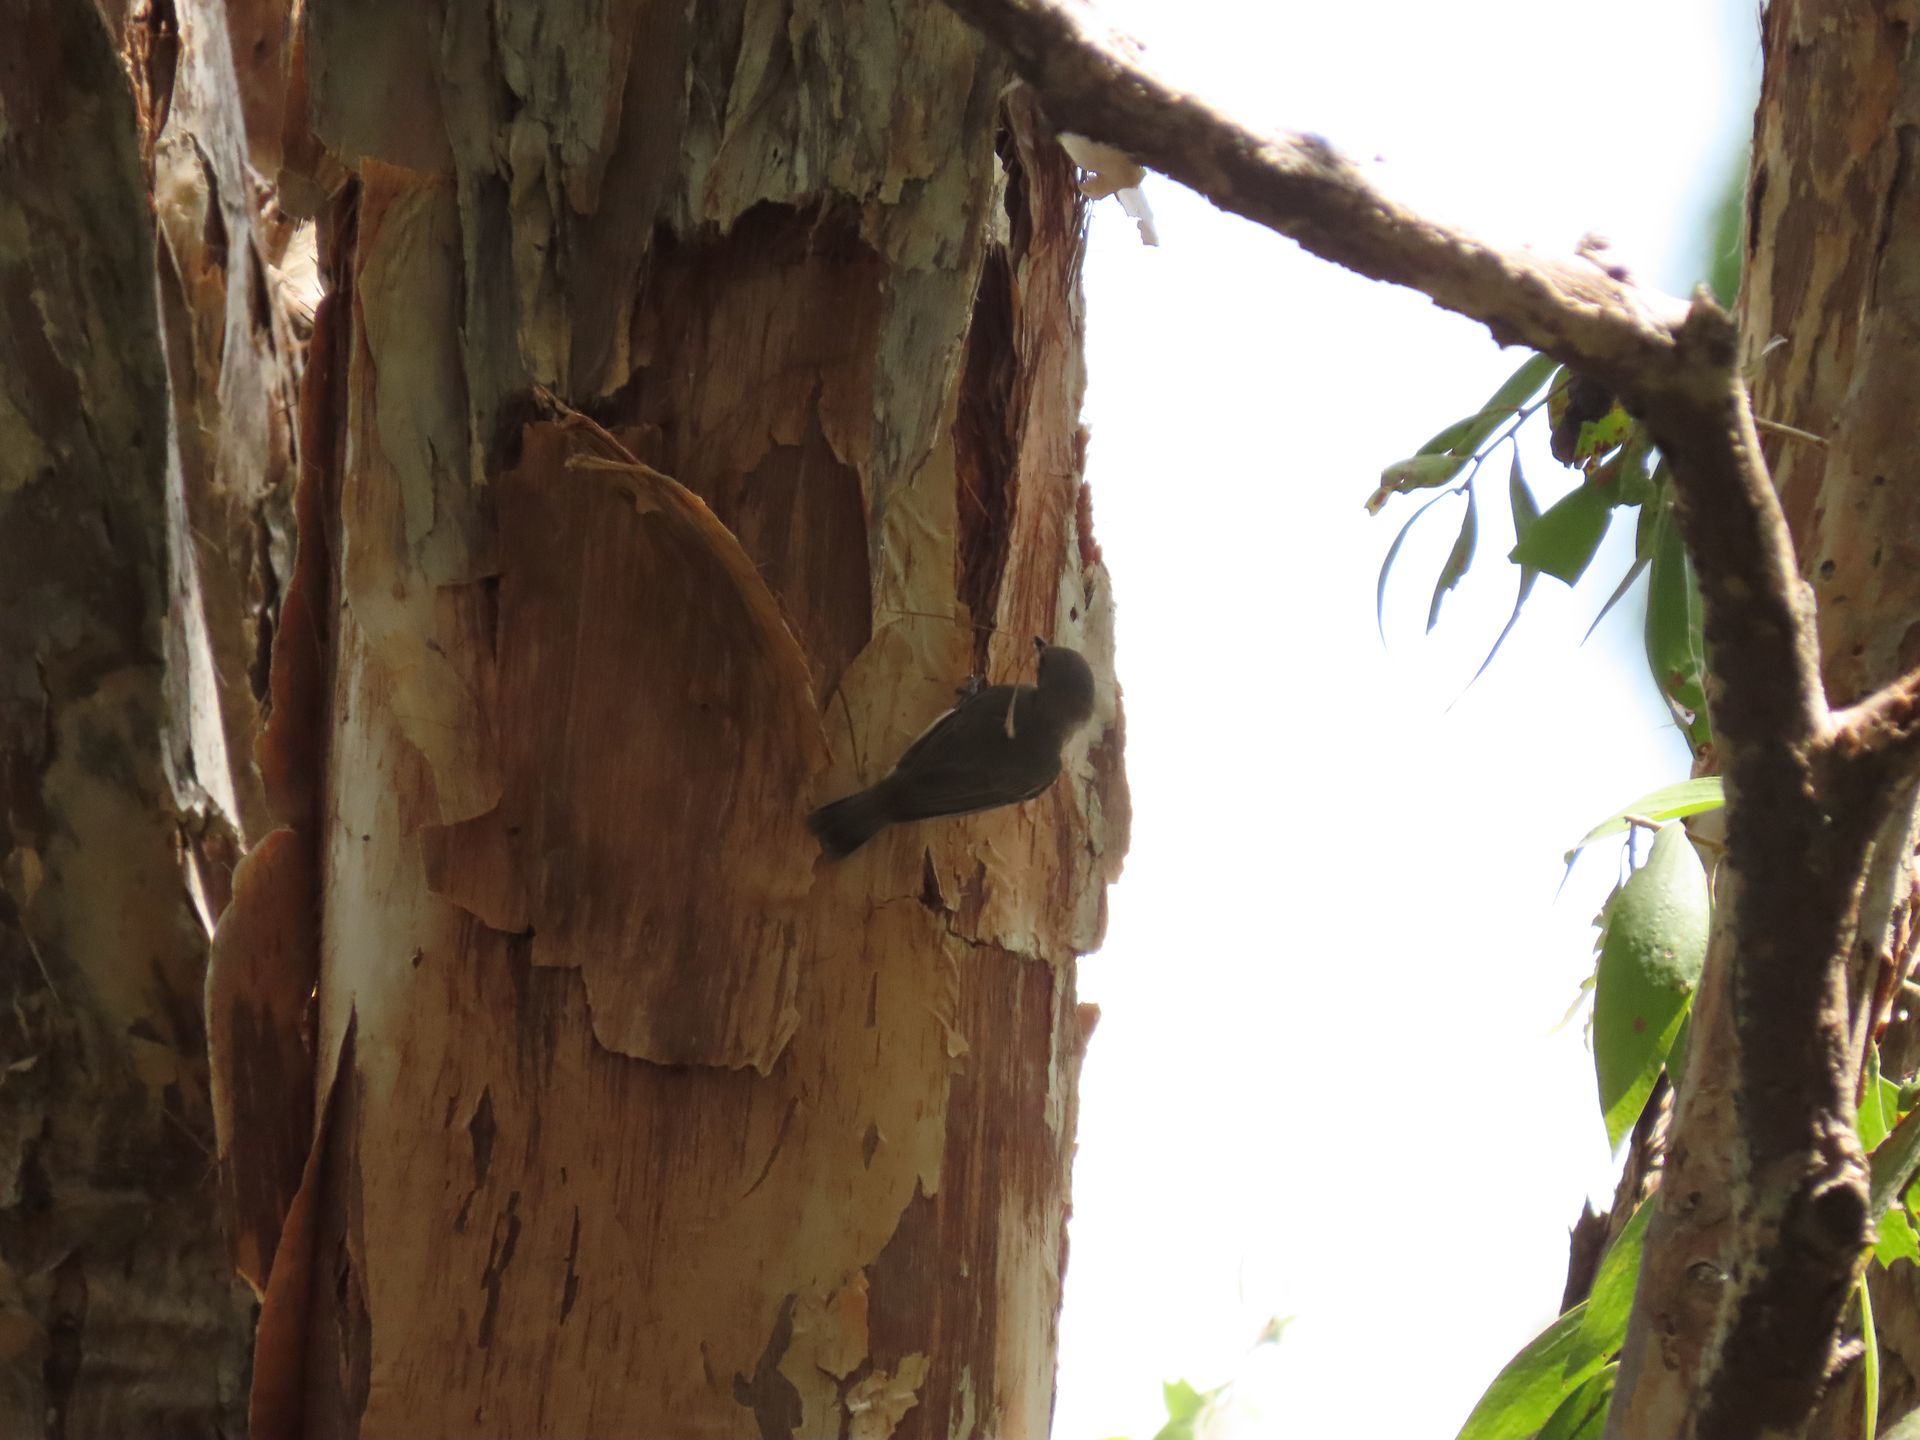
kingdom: Animalia
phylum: Chordata
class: Aves
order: Passeriformes
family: Acanthizidae
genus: Gerygone
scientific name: Gerygone magnirostris
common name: Large-billed gerygone
